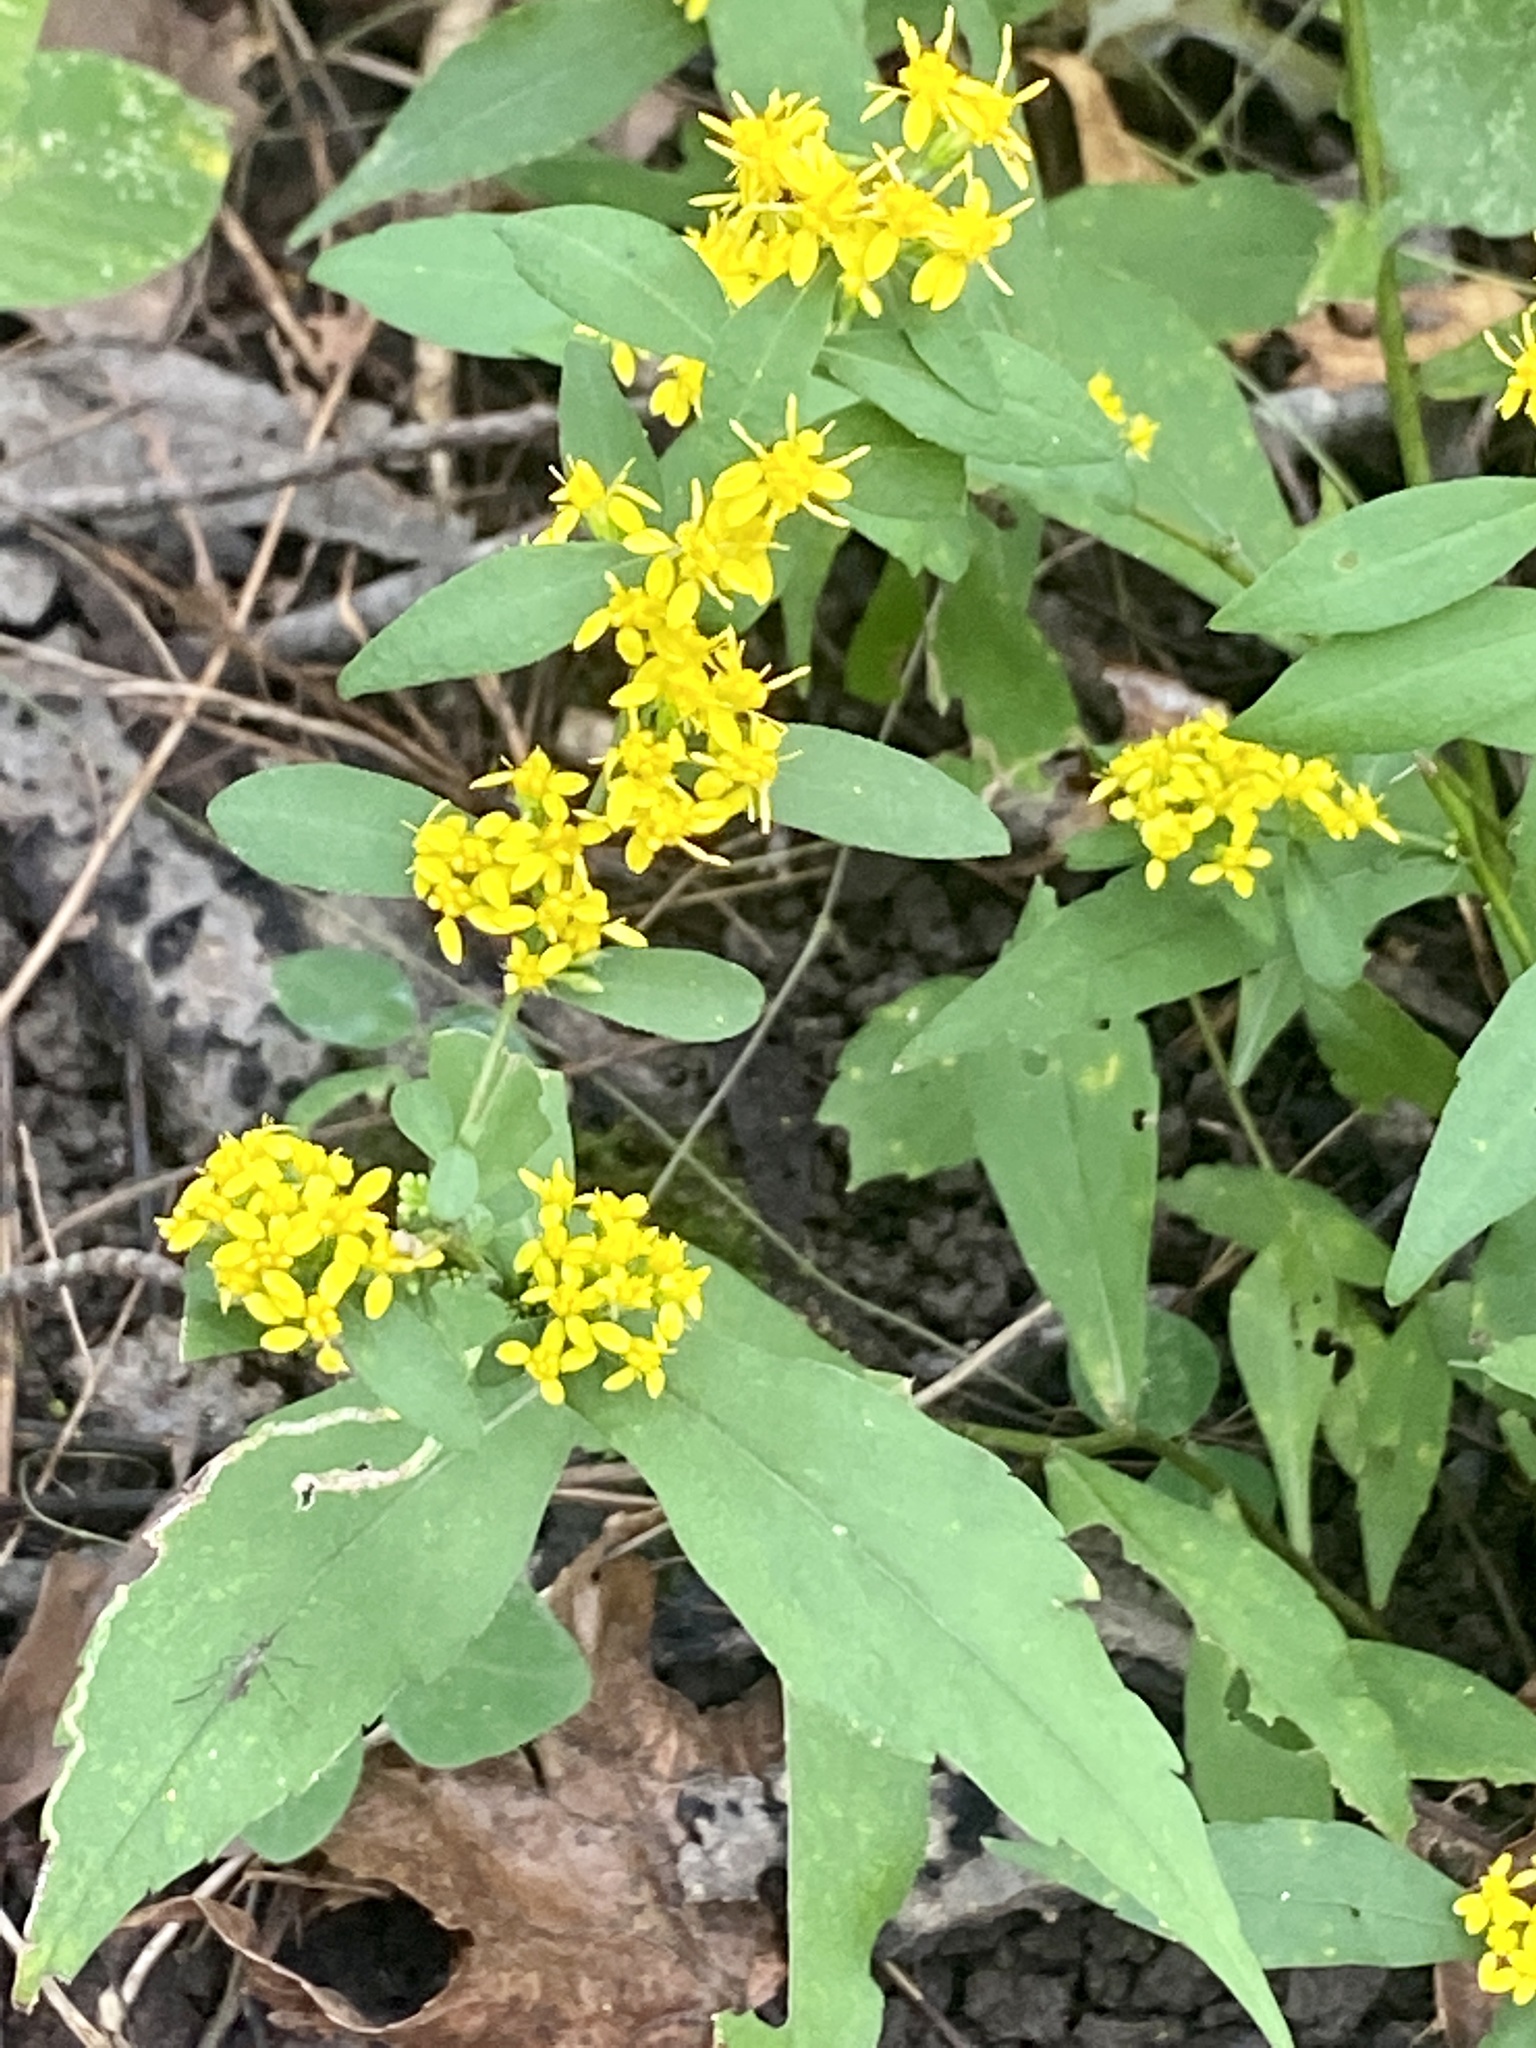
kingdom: Plantae
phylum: Tracheophyta
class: Magnoliopsida
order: Asterales
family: Asteraceae
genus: Solidago
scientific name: Solidago caesia
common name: Woodland goldenrod
